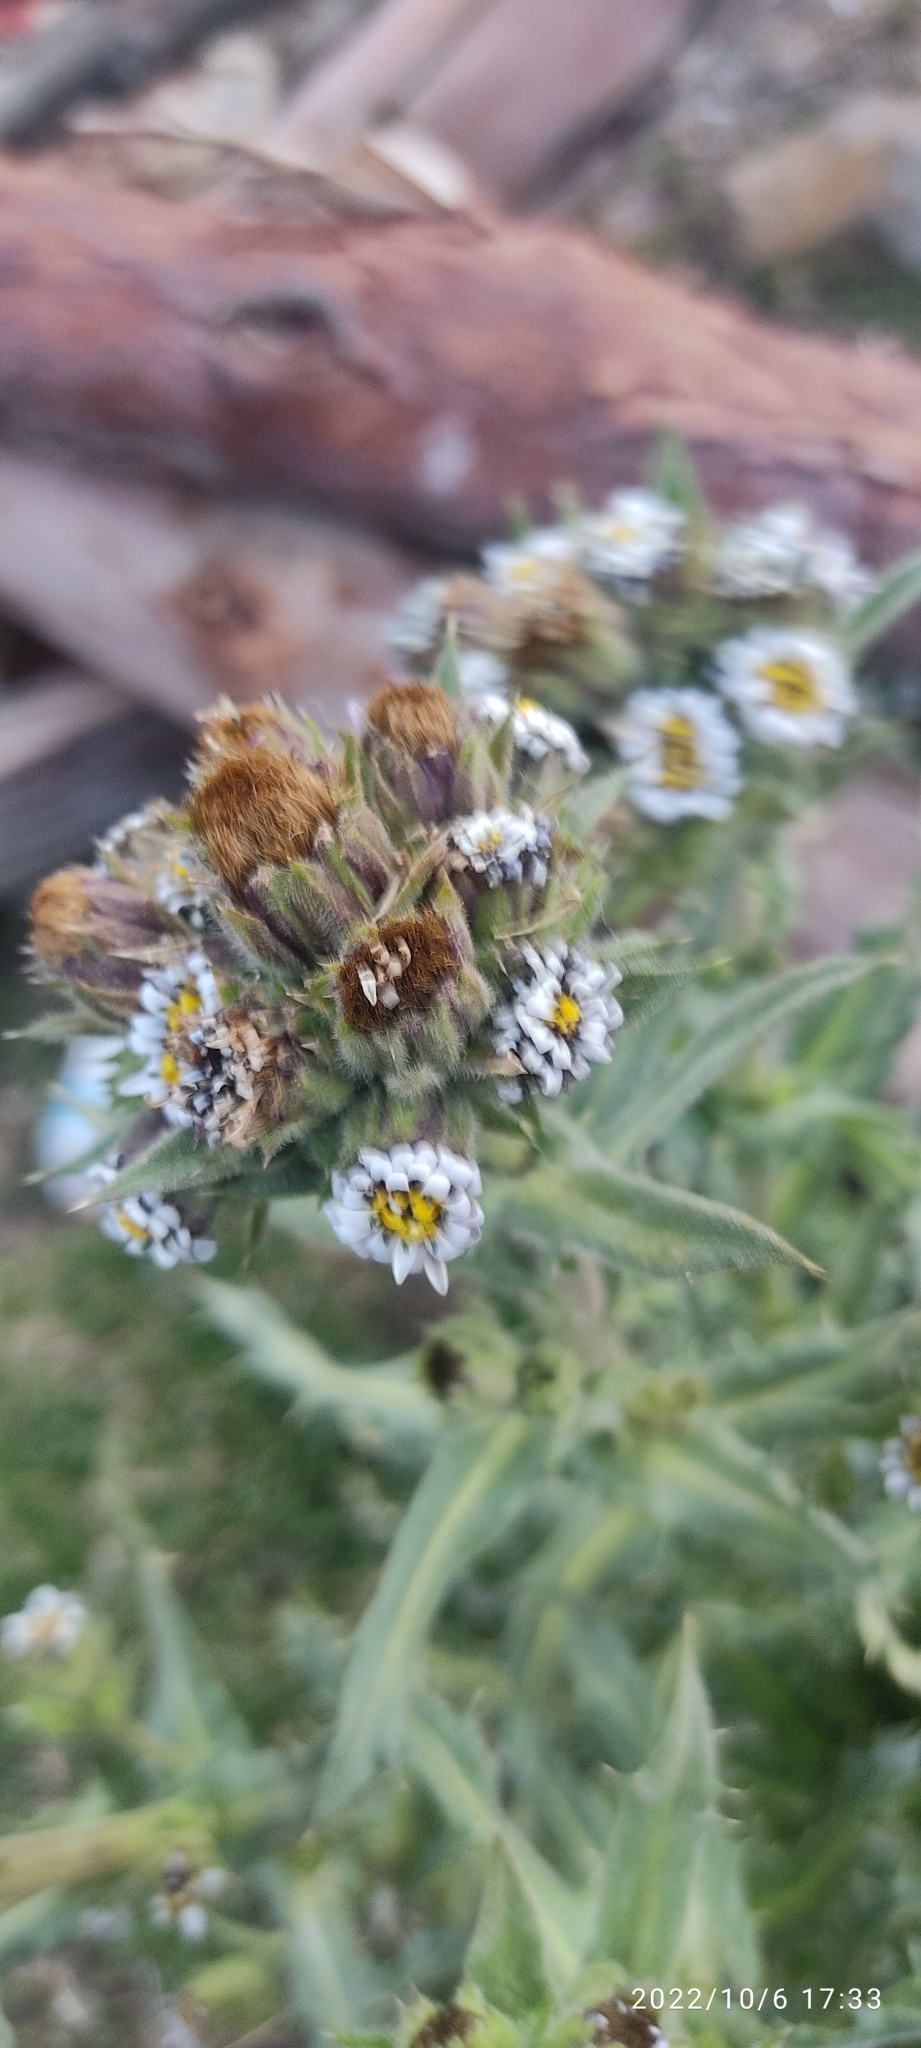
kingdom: Plantae
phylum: Tracheophyta
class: Magnoliopsida
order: Asterales
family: Asteraceae
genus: Perezia
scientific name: Perezia multiflora
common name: Perezia
